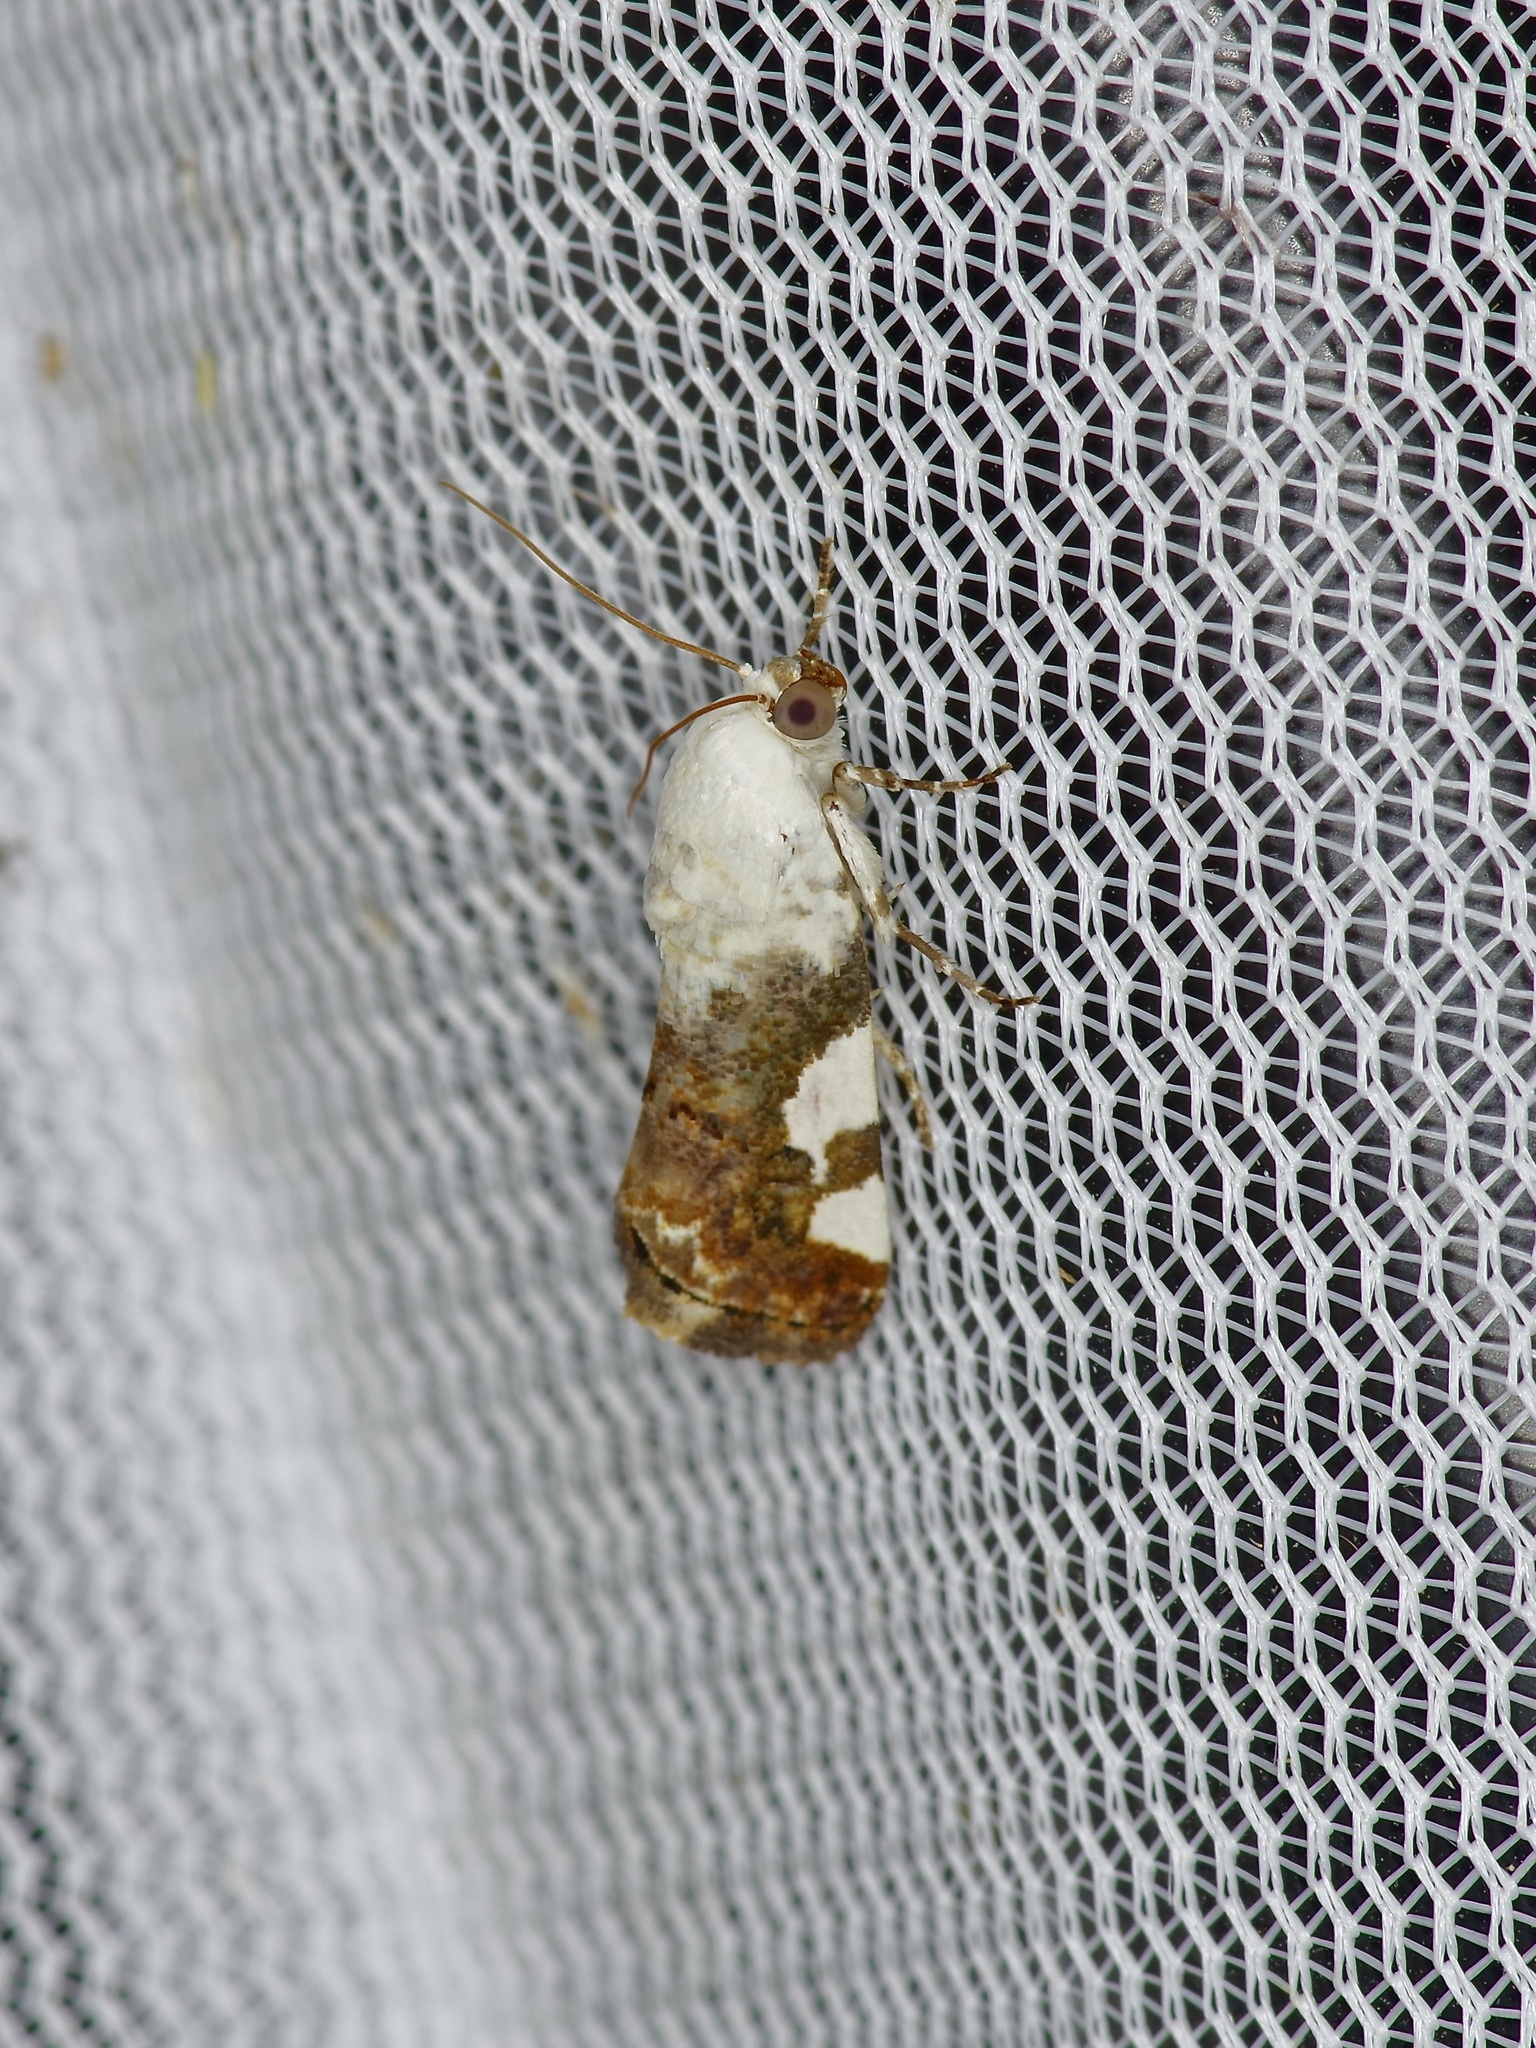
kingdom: Animalia
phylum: Arthropoda
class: Insecta
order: Lepidoptera
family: Noctuidae
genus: Acontia
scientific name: Acontia quadriplaga
